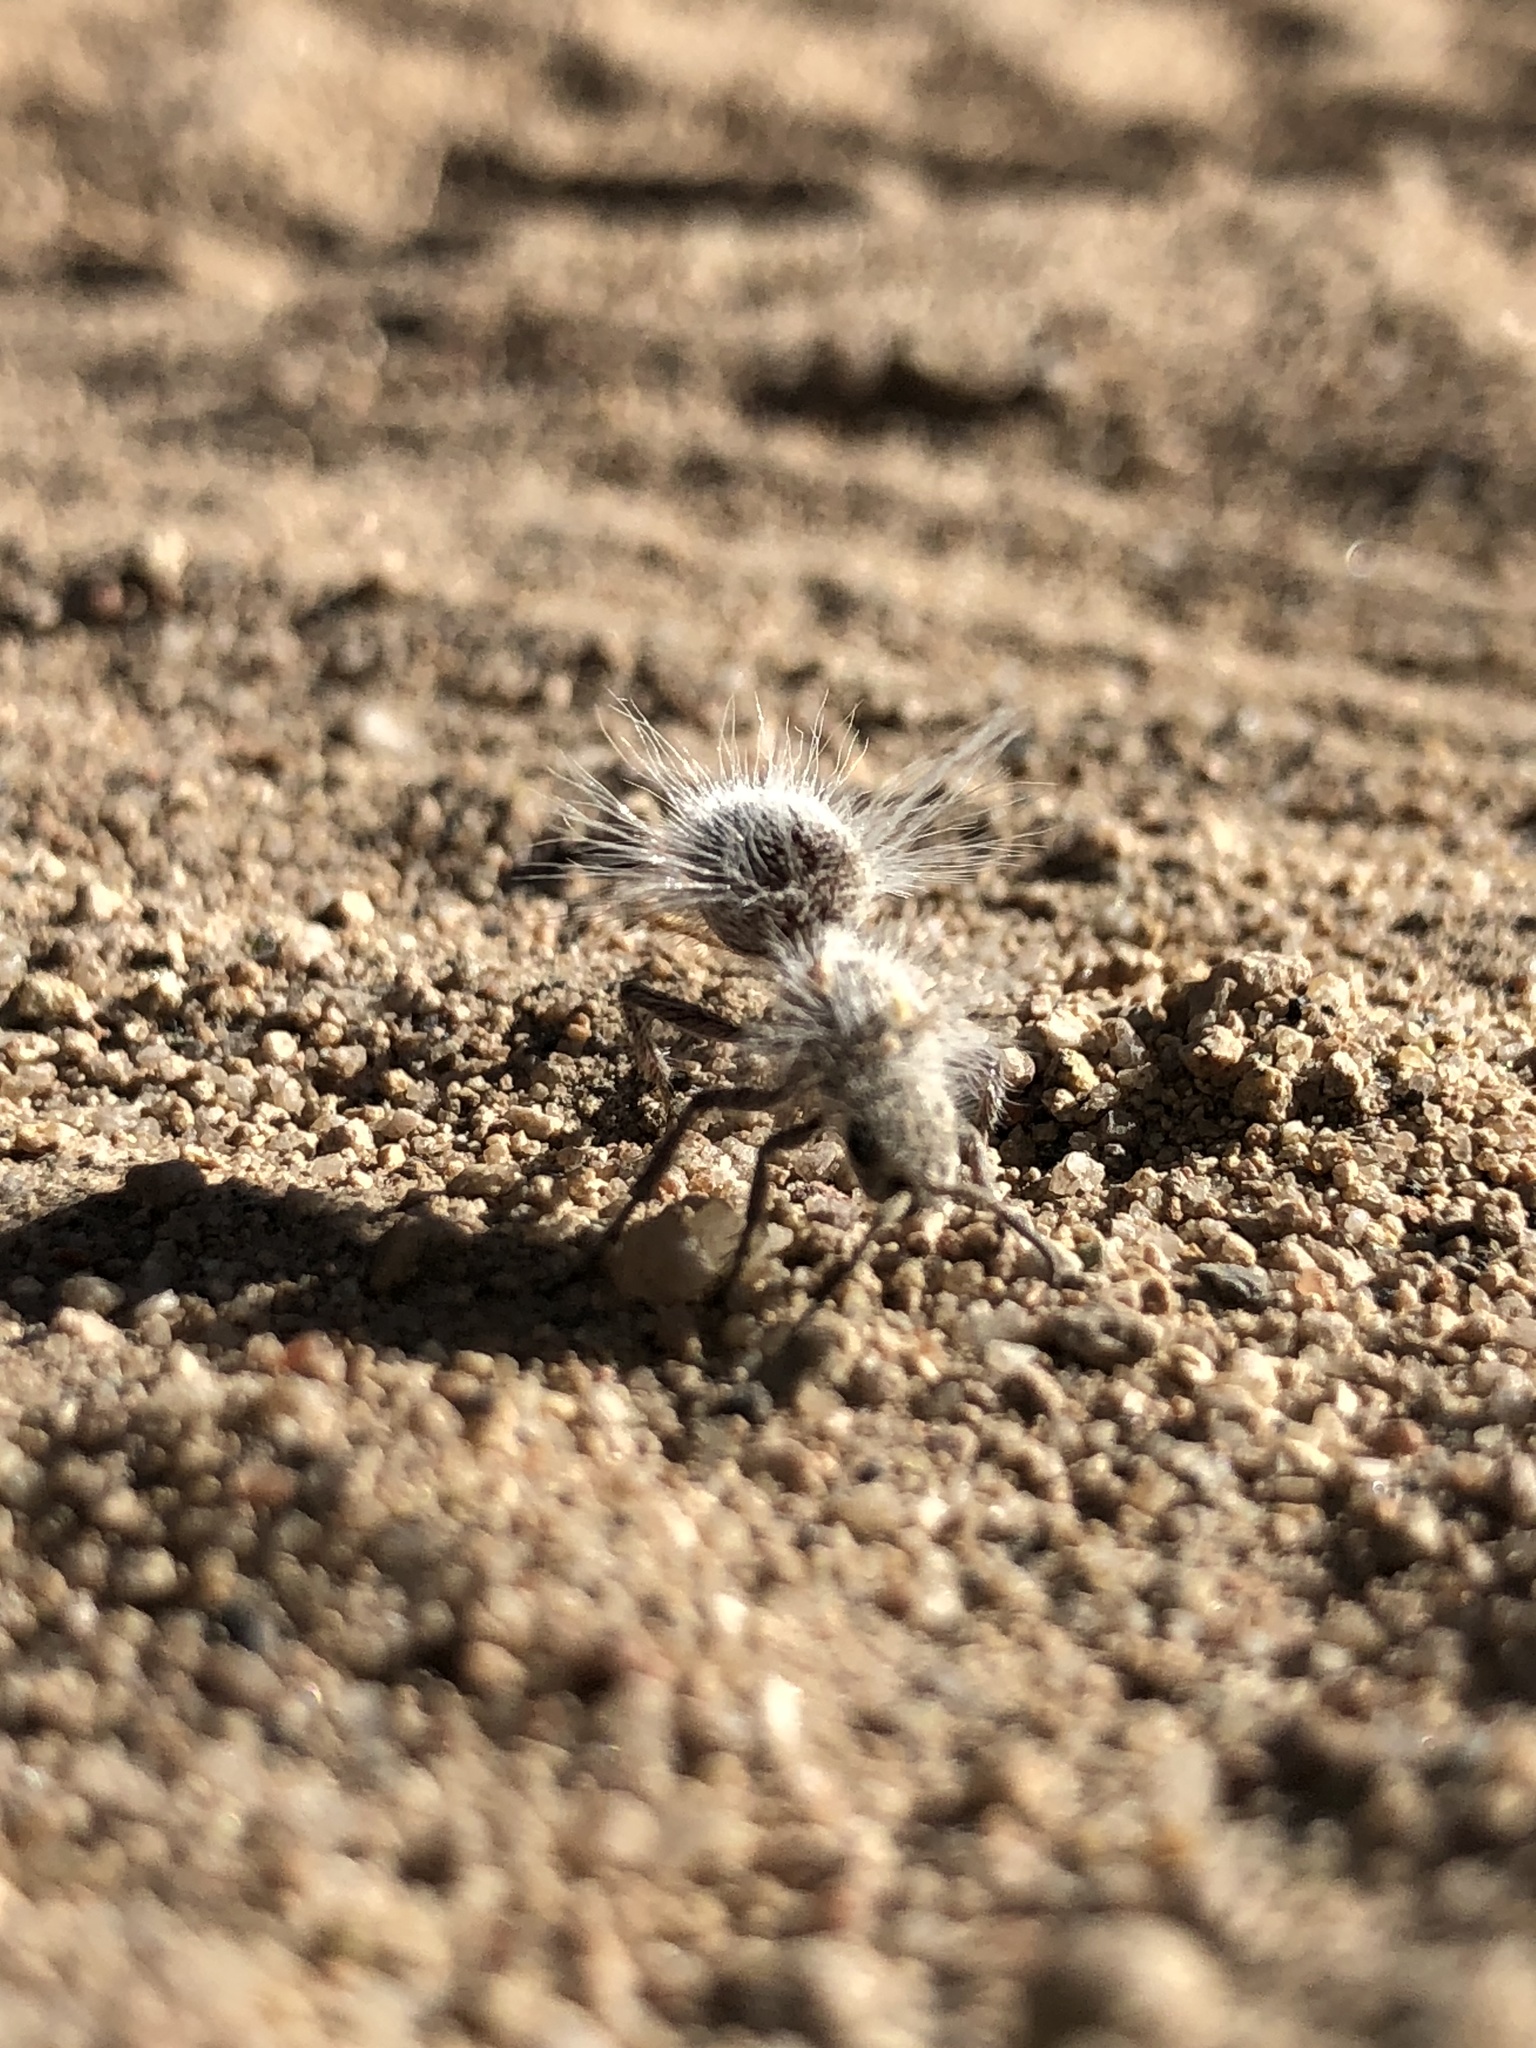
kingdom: Animalia
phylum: Arthropoda
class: Insecta
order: Hymenoptera
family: Mutillidae
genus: Dasymutilla
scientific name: Dasymutilla gloriosa
